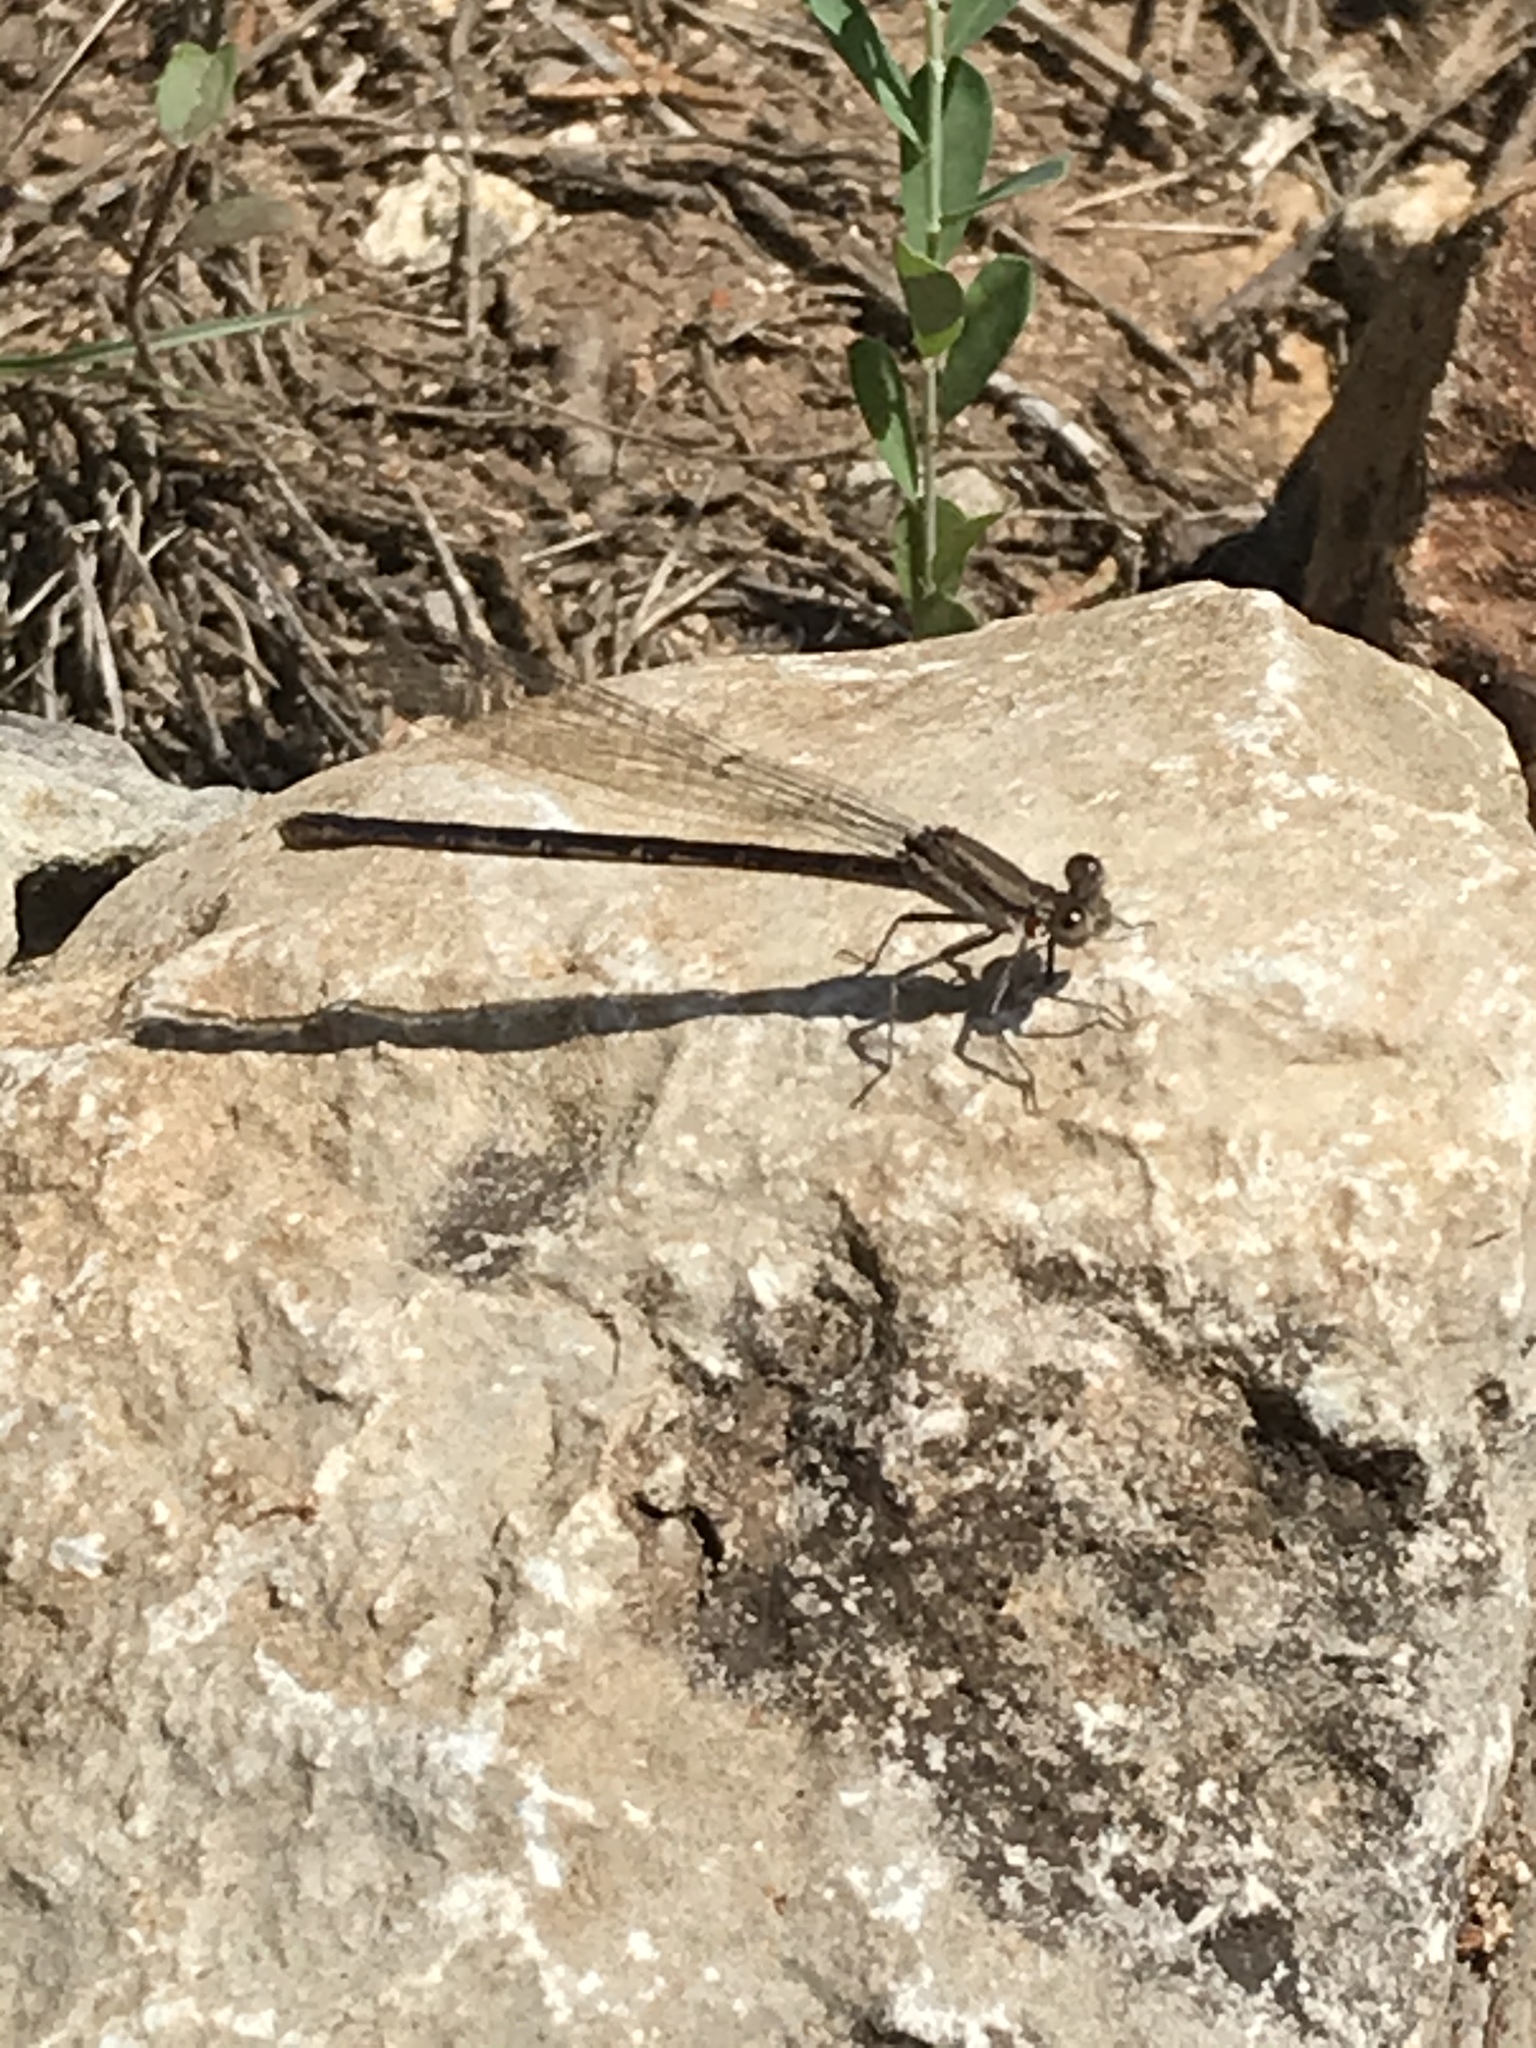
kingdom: Animalia
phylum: Arthropoda
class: Insecta
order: Odonata
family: Coenagrionidae
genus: Argia
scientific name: Argia fumipennis
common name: Variable dancer
